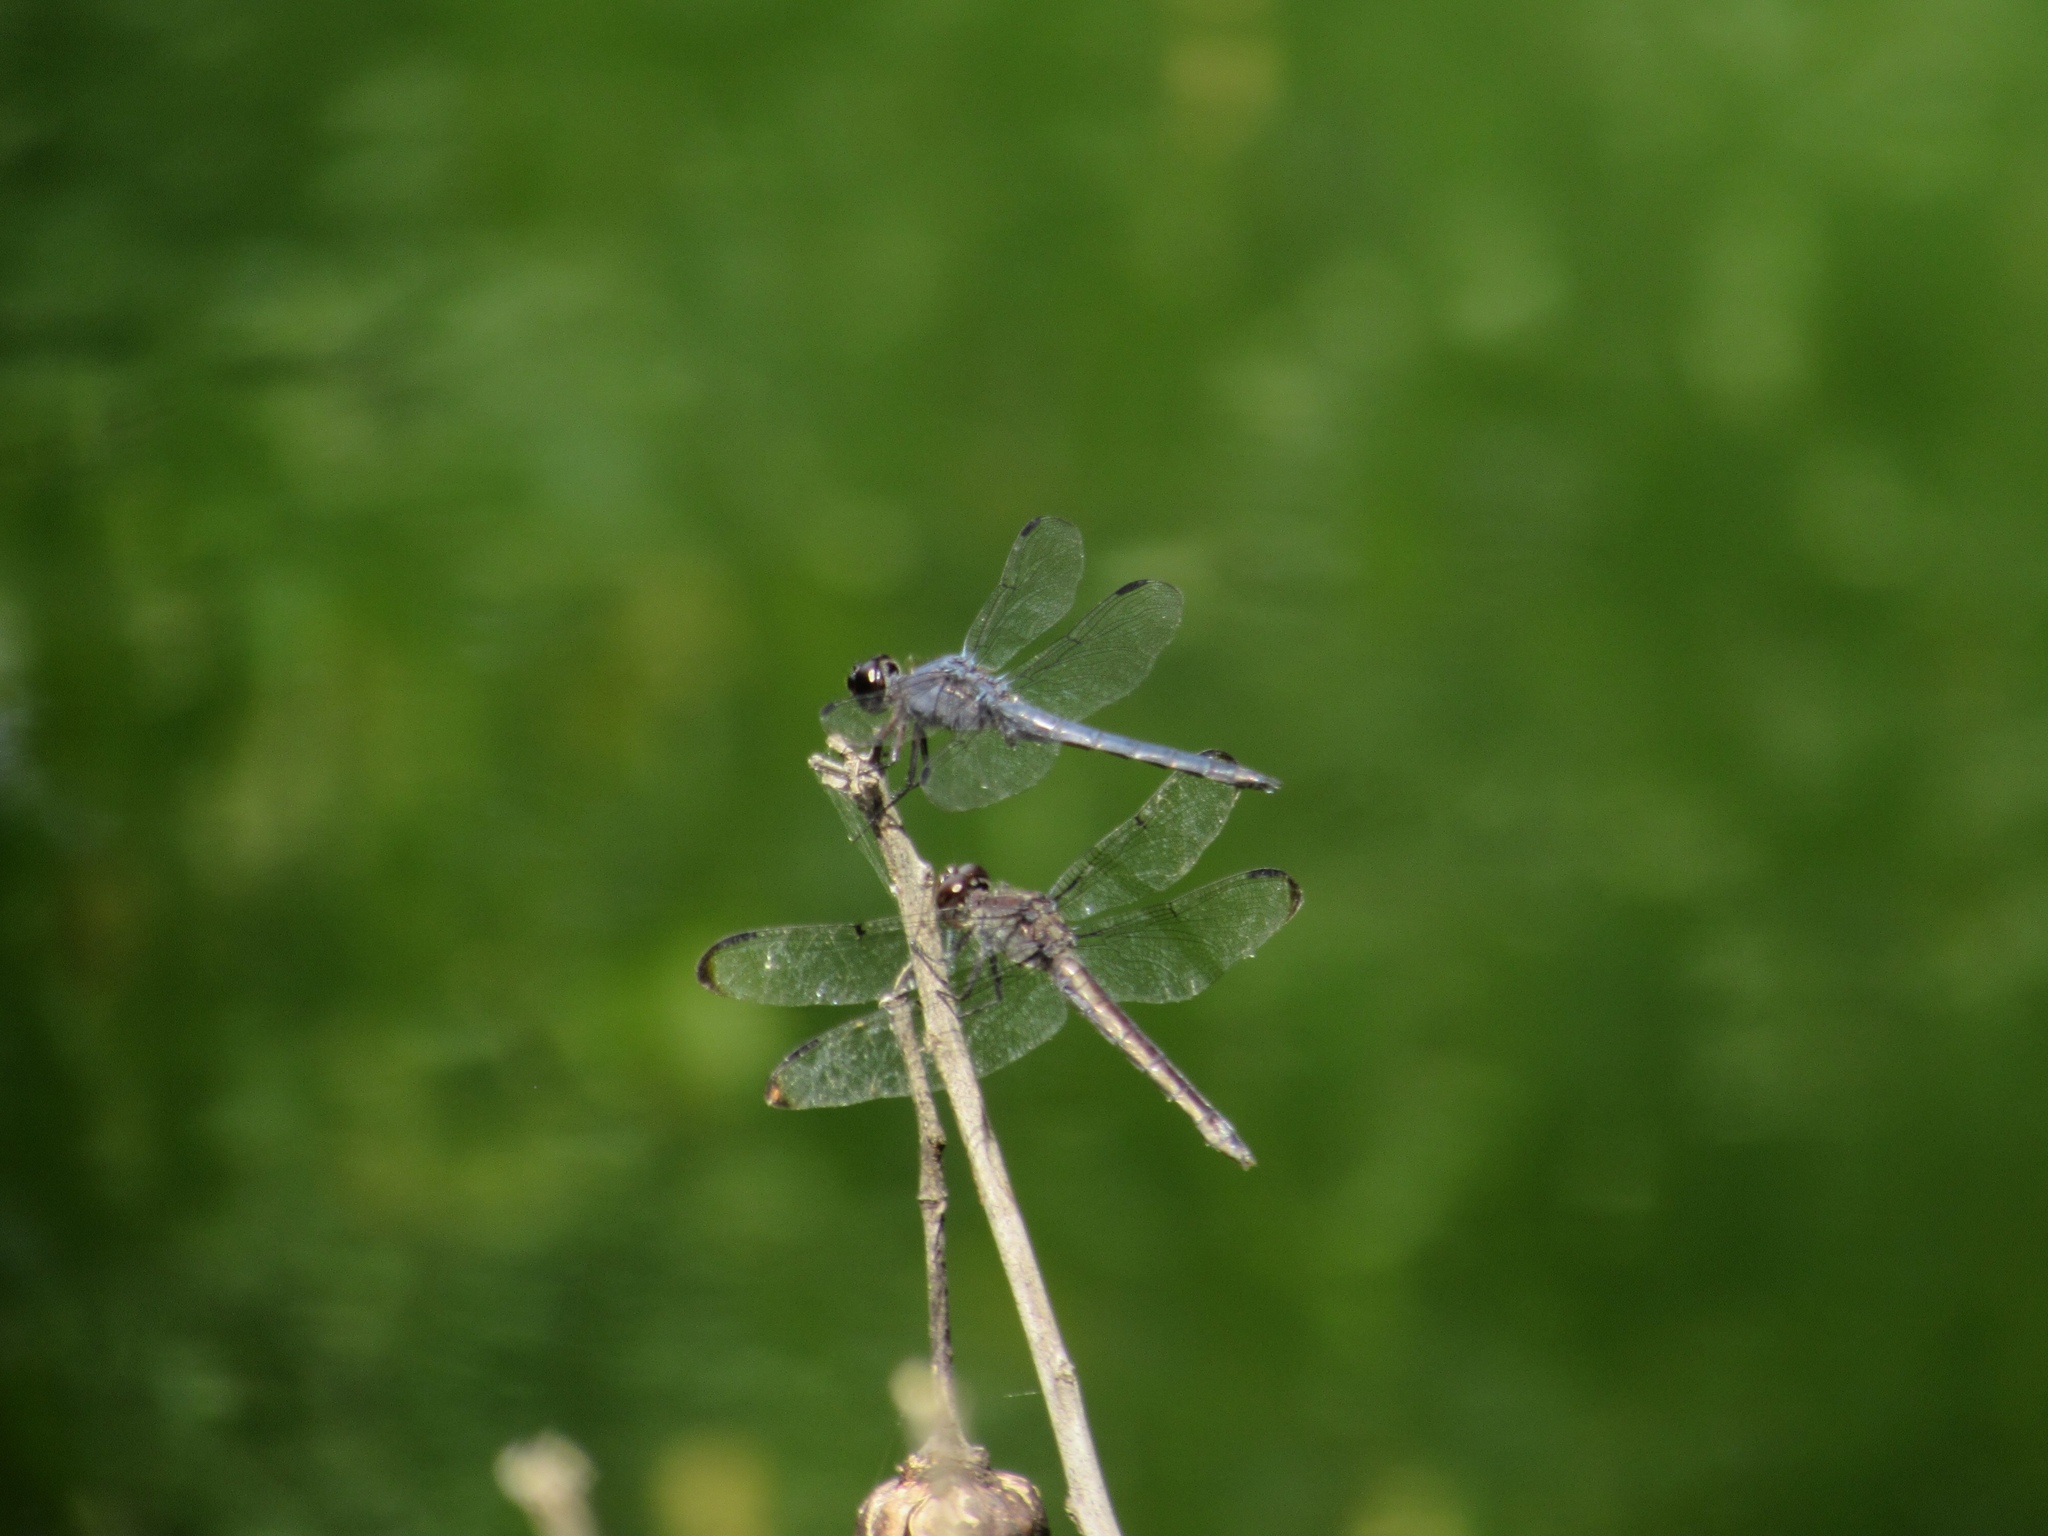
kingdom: Animalia
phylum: Arthropoda
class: Insecta
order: Odonata
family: Libellulidae
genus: Libellula
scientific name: Libellula incesta
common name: Slaty skimmer
